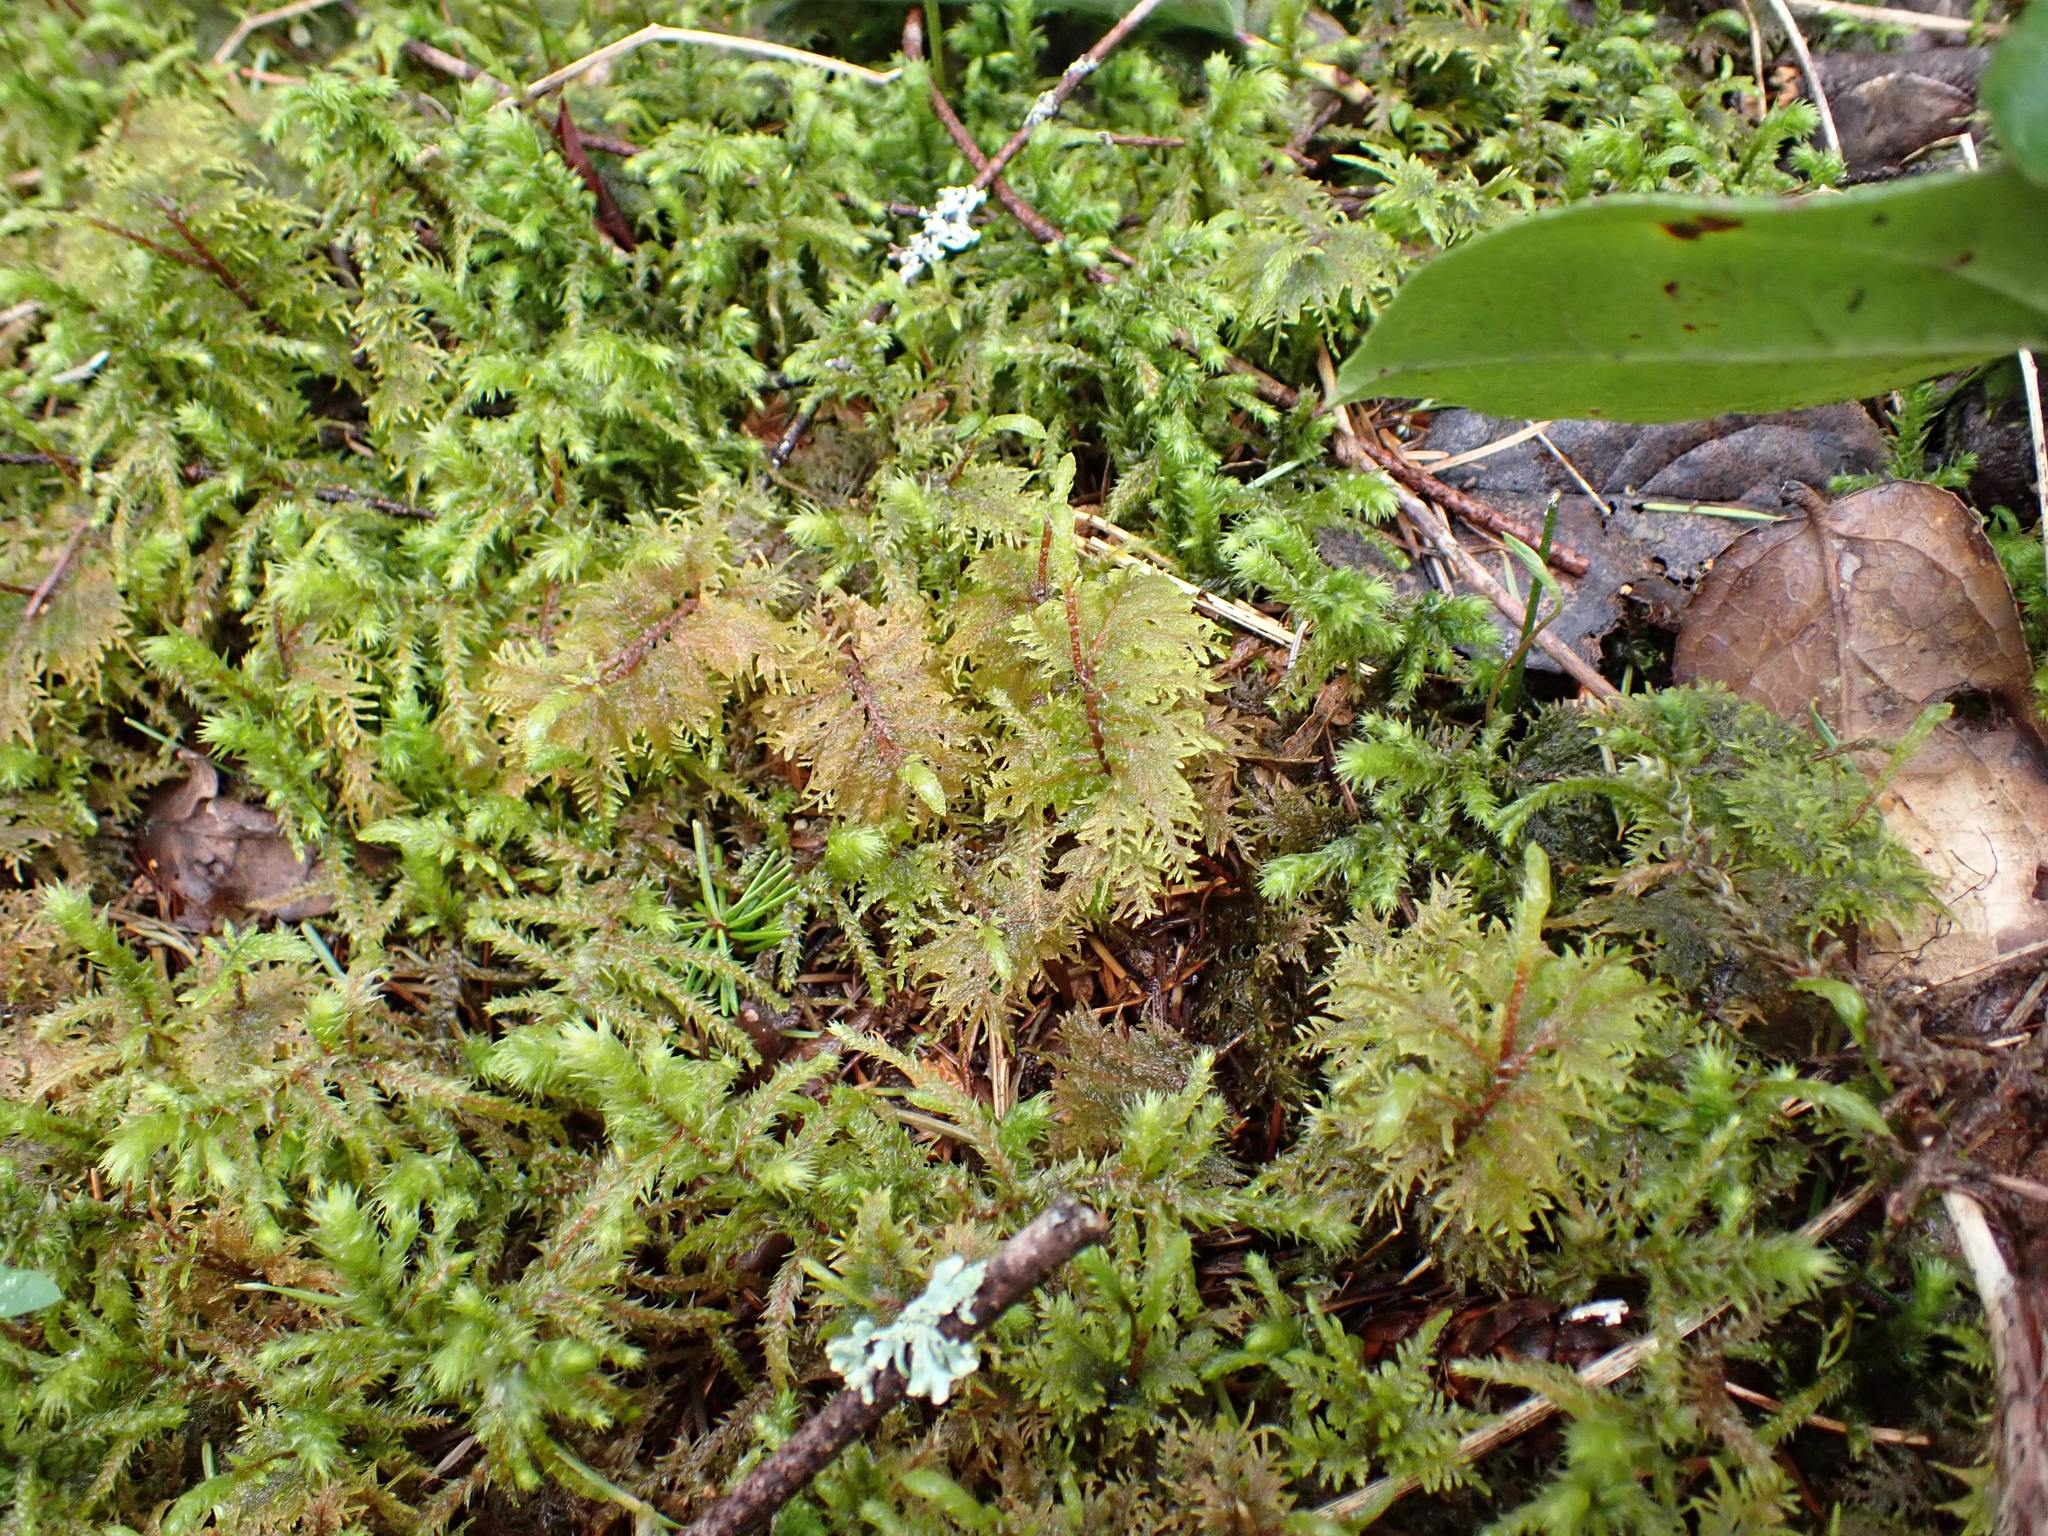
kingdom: Plantae
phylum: Bryophyta
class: Bryopsida
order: Hypnales
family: Hylocomiaceae
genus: Hylocomium
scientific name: Hylocomium splendens
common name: Stairstep moss
